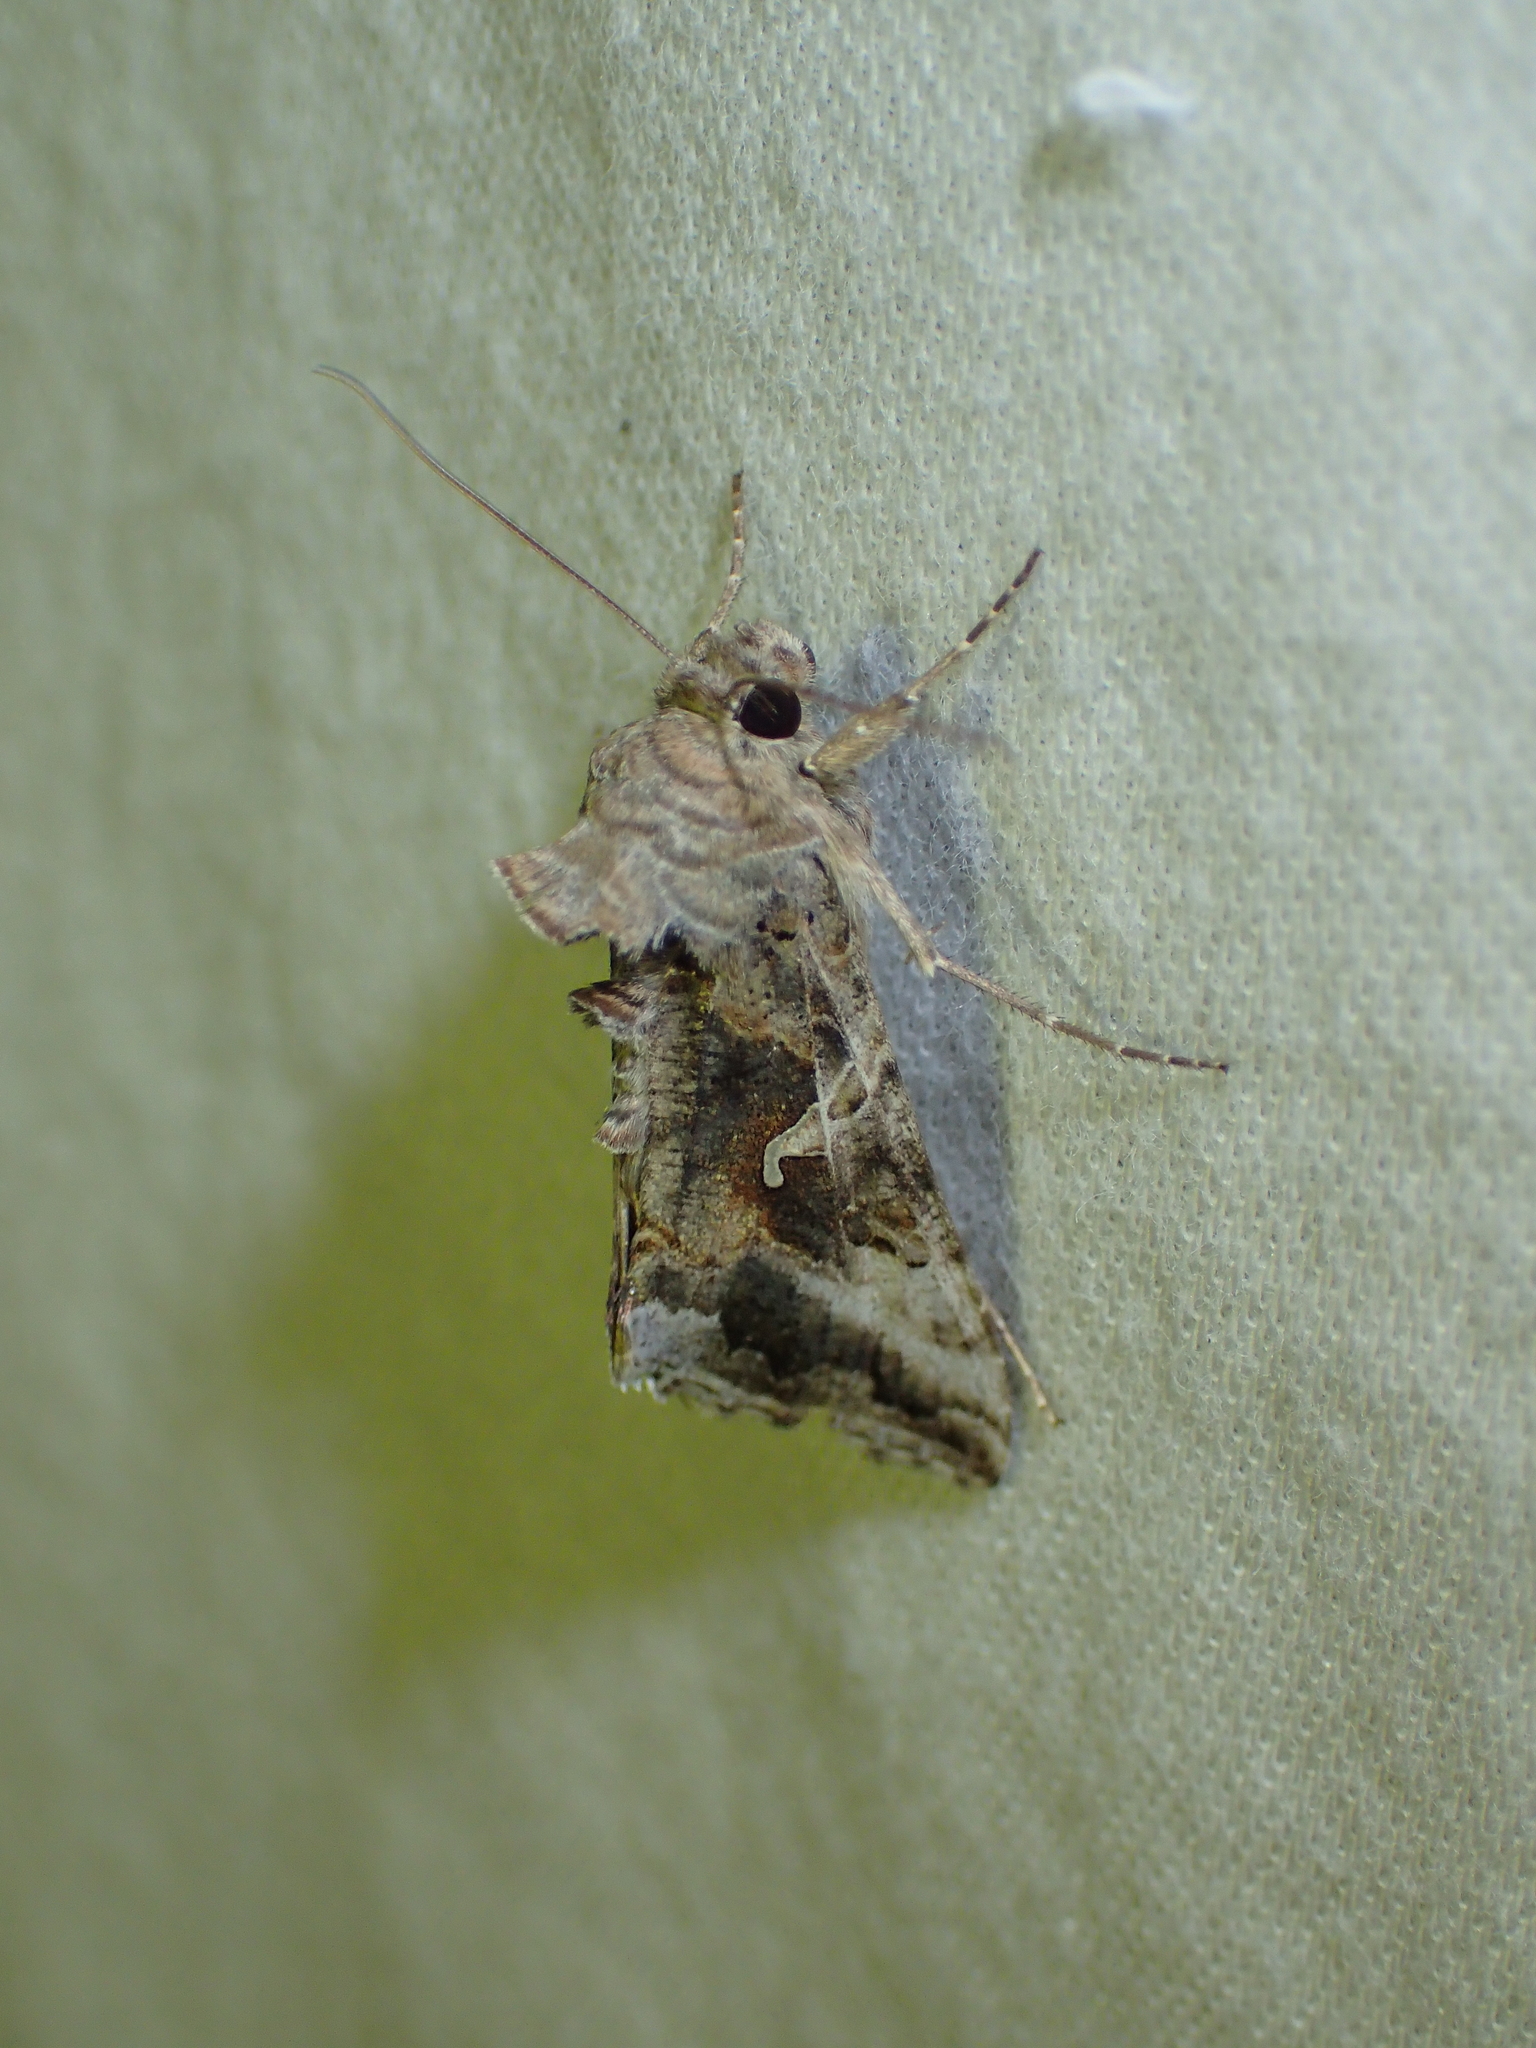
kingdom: Animalia
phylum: Arthropoda
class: Insecta
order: Lepidoptera
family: Noctuidae
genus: Autographa
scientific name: Autographa gamma
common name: Silver y
